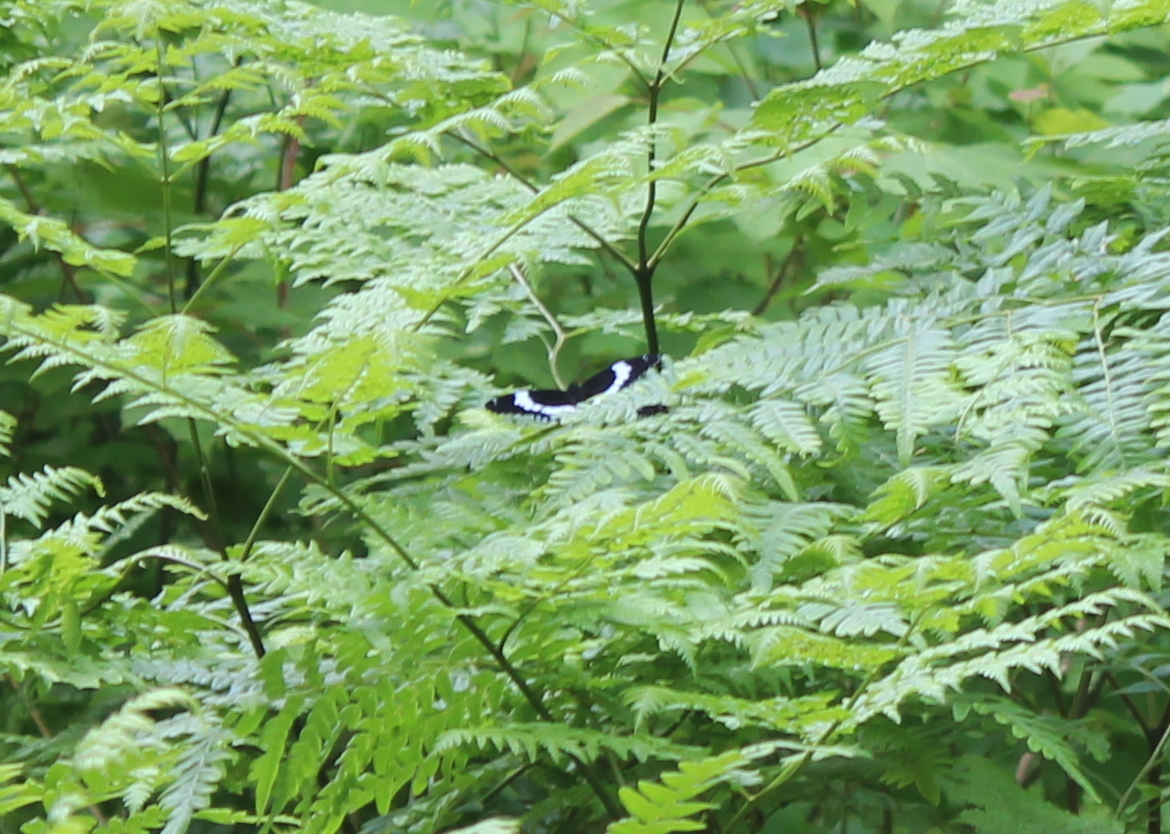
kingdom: Animalia
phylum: Arthropoda
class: Insecta
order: Lepidoptera
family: Nymphalidae
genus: Limenitis
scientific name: Limenitis arthemis
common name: Red-spotted admiral
